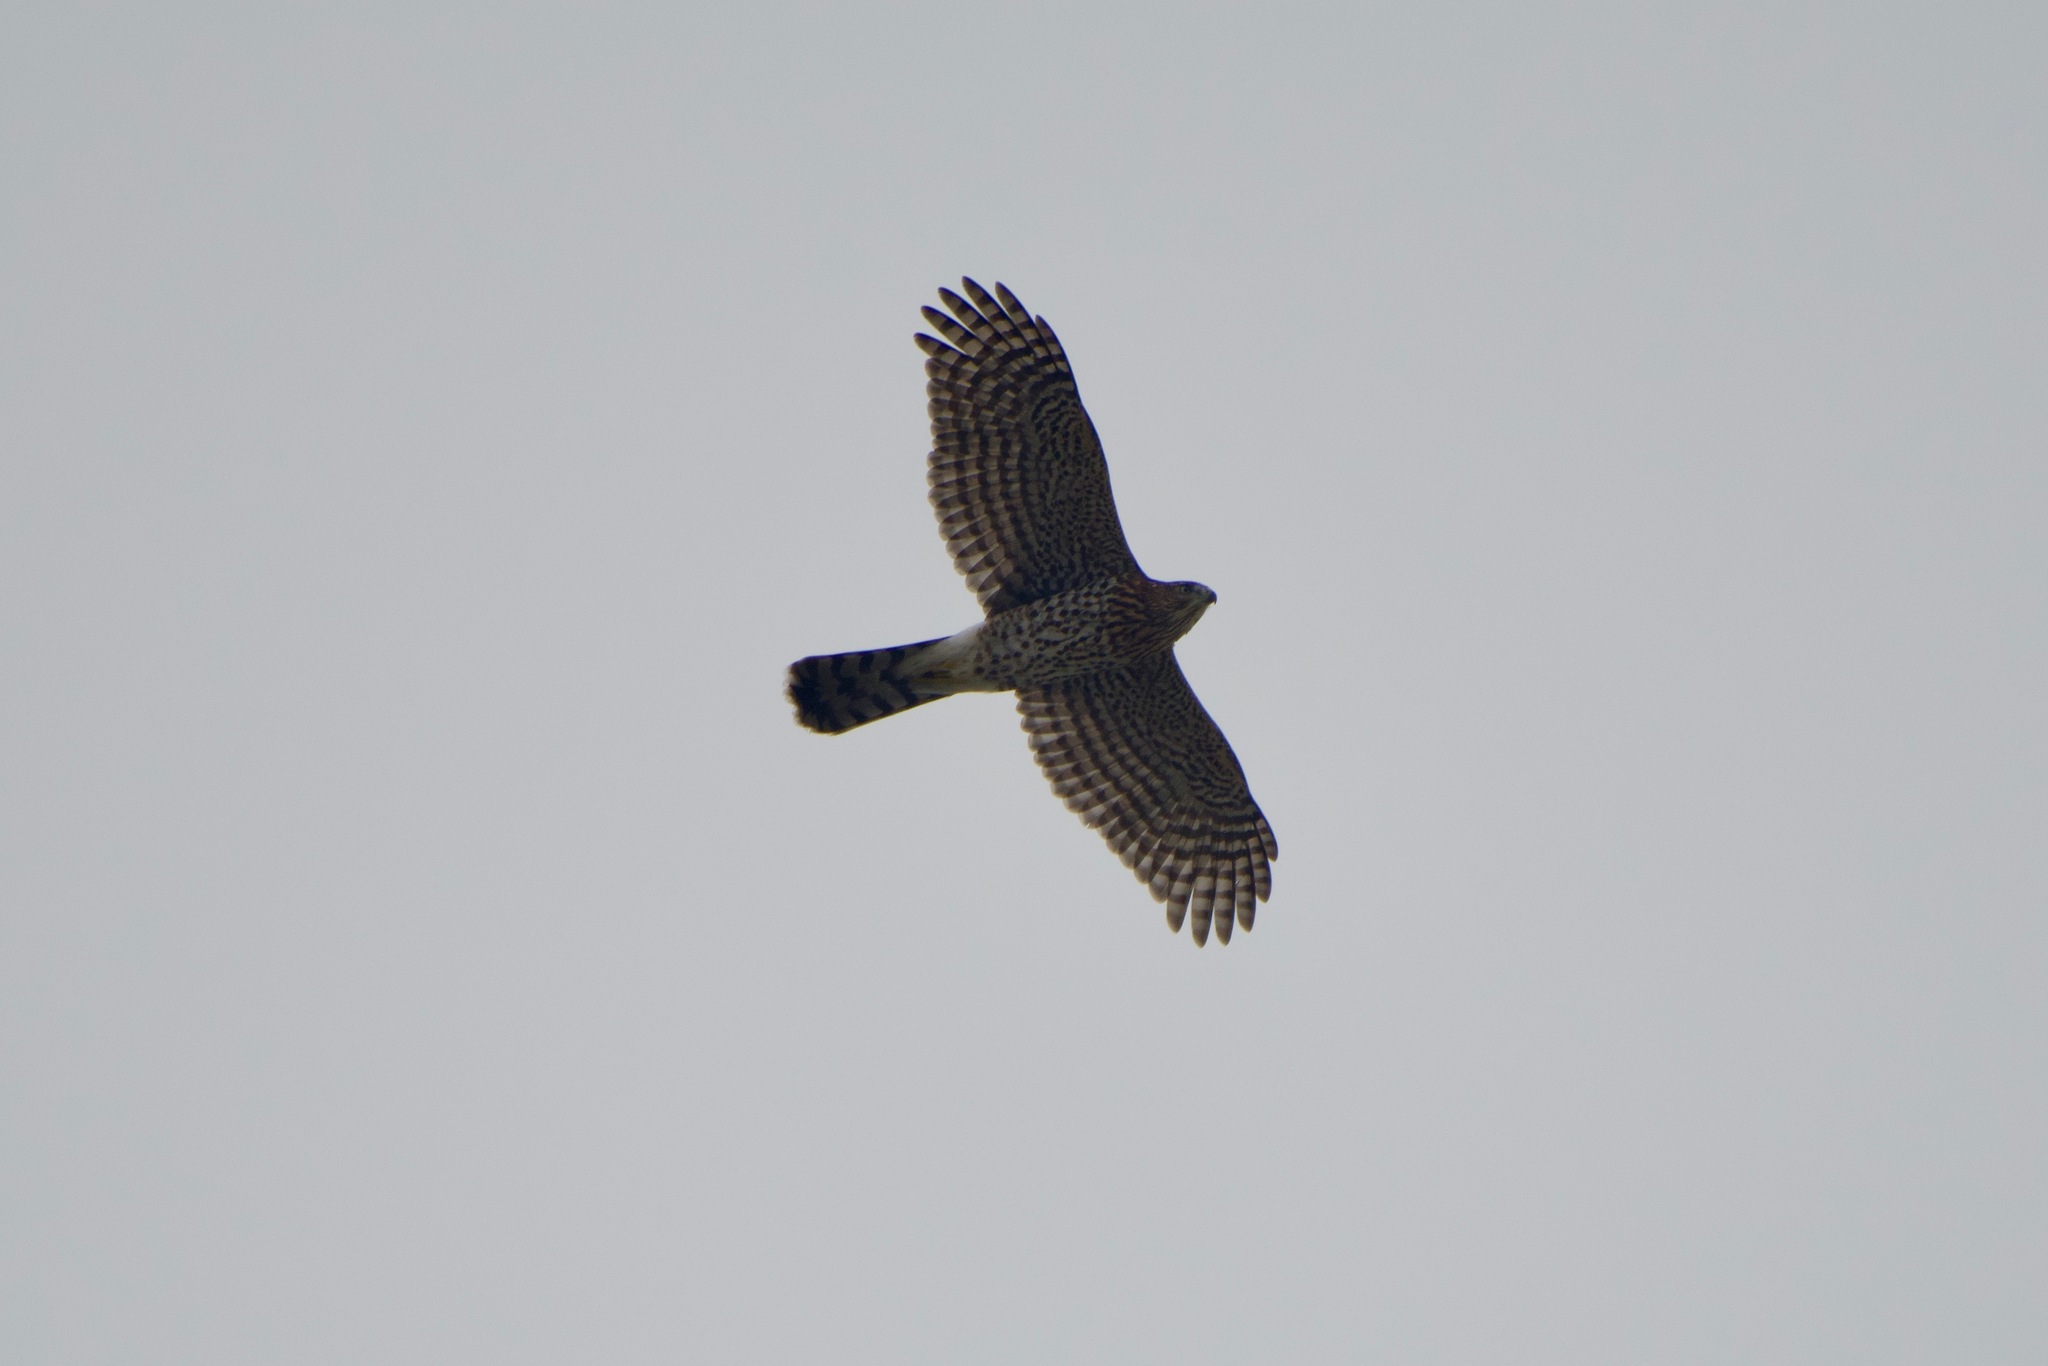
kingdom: Animalia
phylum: Chordata
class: Aves
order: Accipitriformes
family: Accipitridae
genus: Accipiter
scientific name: Accipiter cooperii
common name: Cooper's hawk
